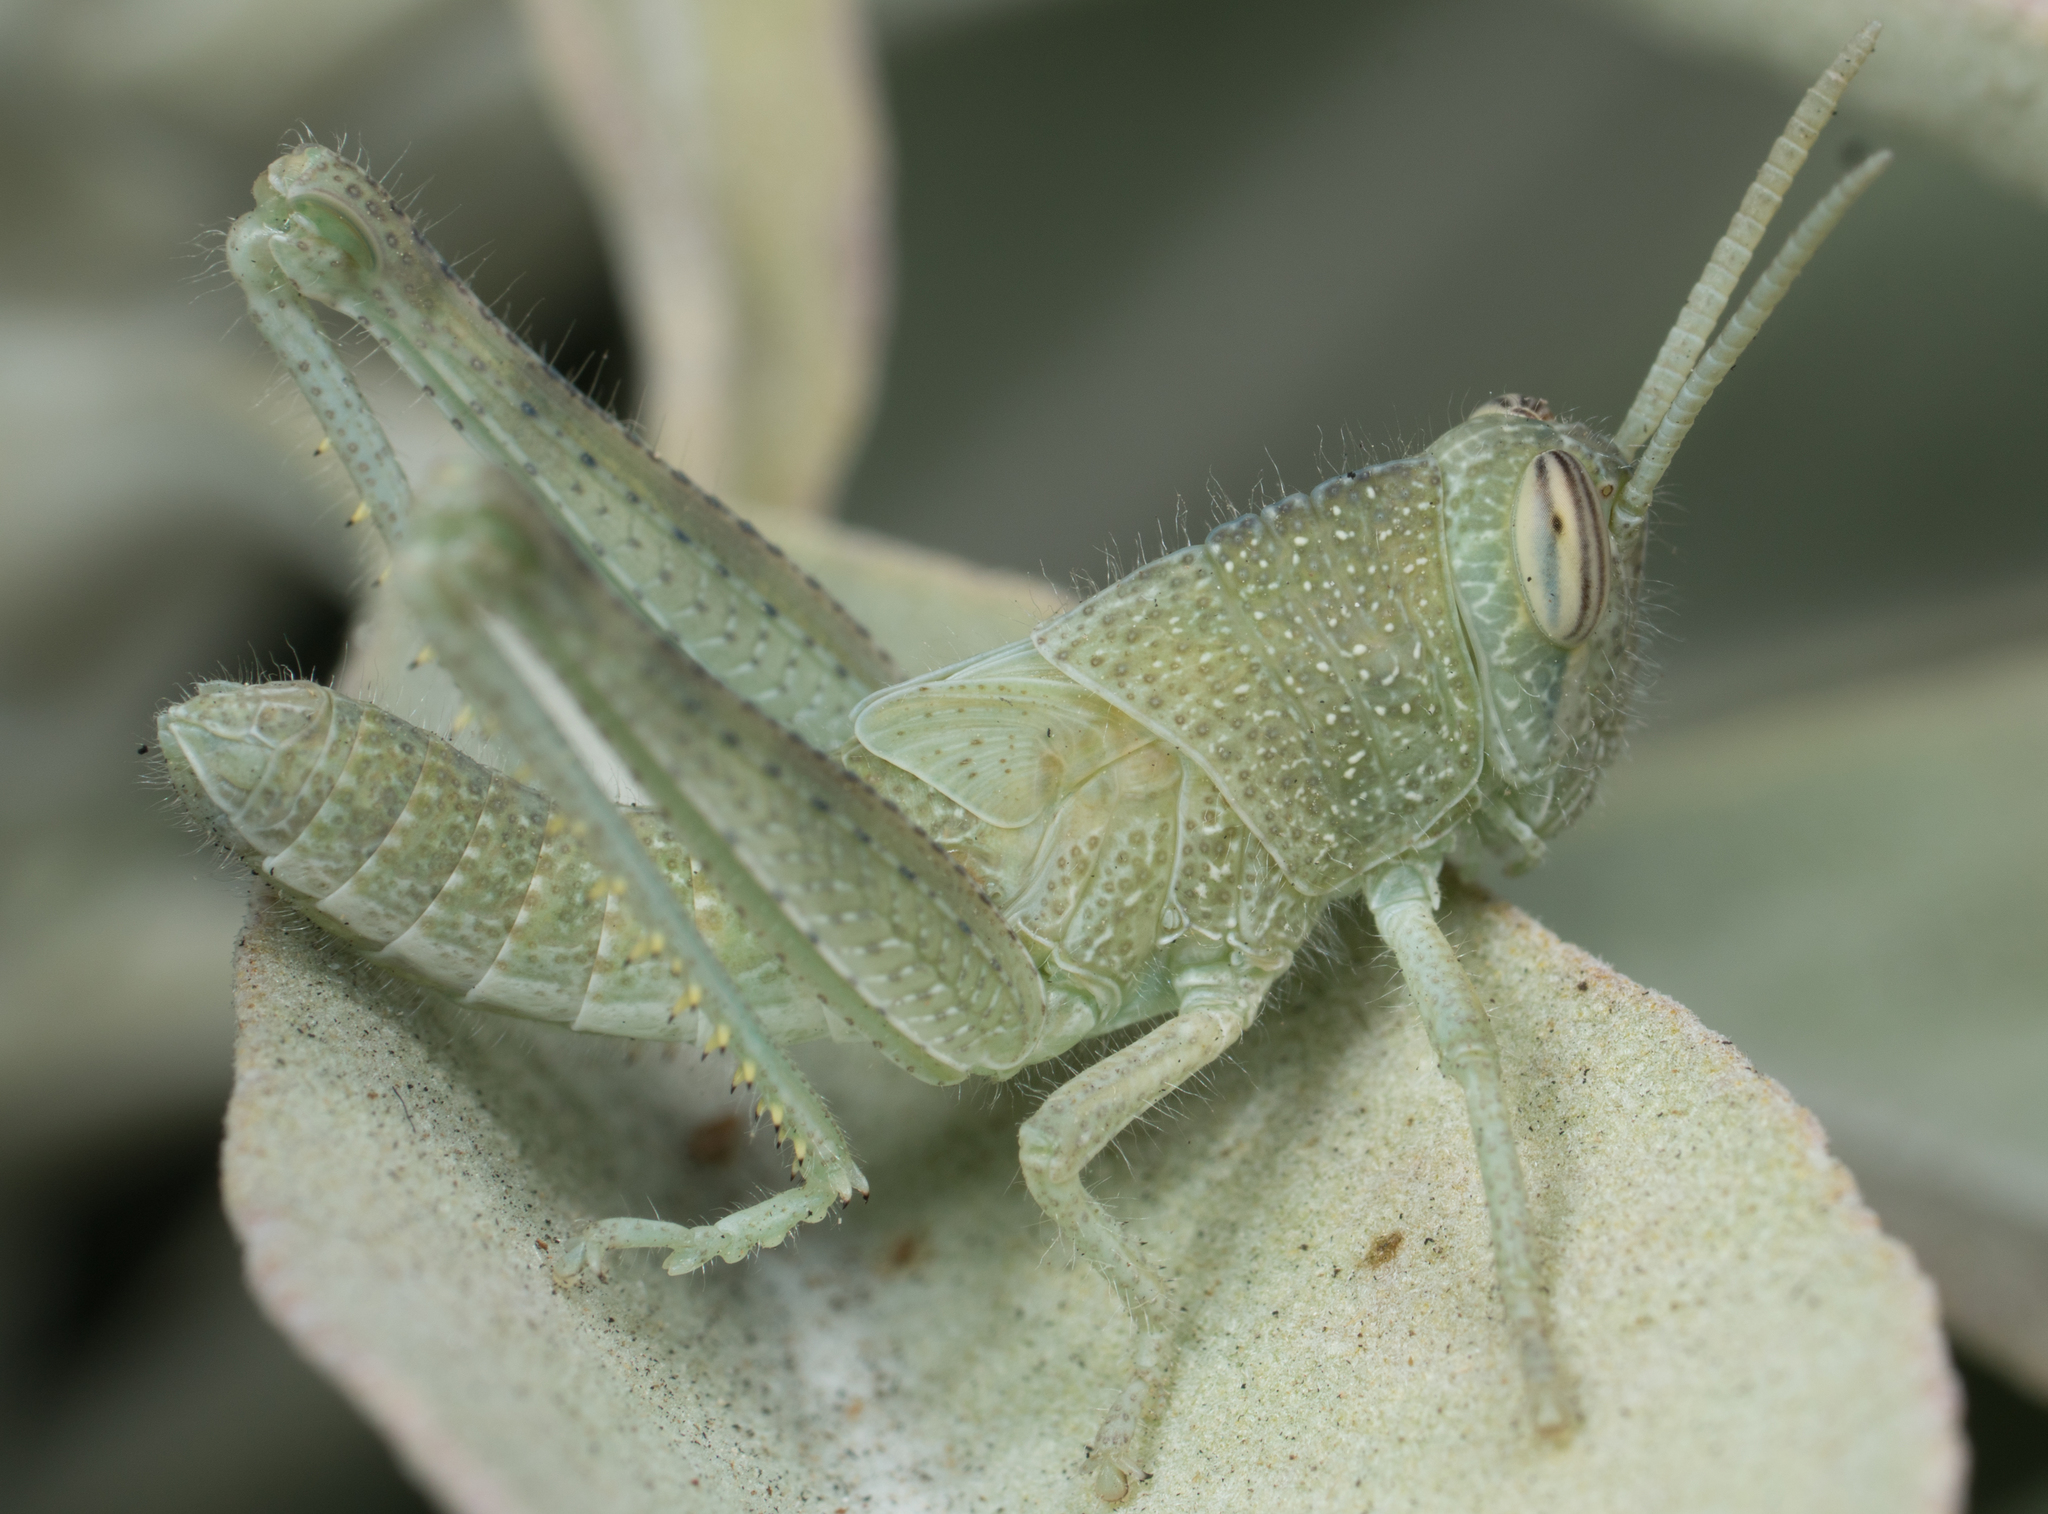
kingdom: Animalia
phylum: Arthropoda
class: Insecta
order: Orthoptera
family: Acrididae
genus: Schistocerca
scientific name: Schistocerca nitens
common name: Vagrant grasshopper
